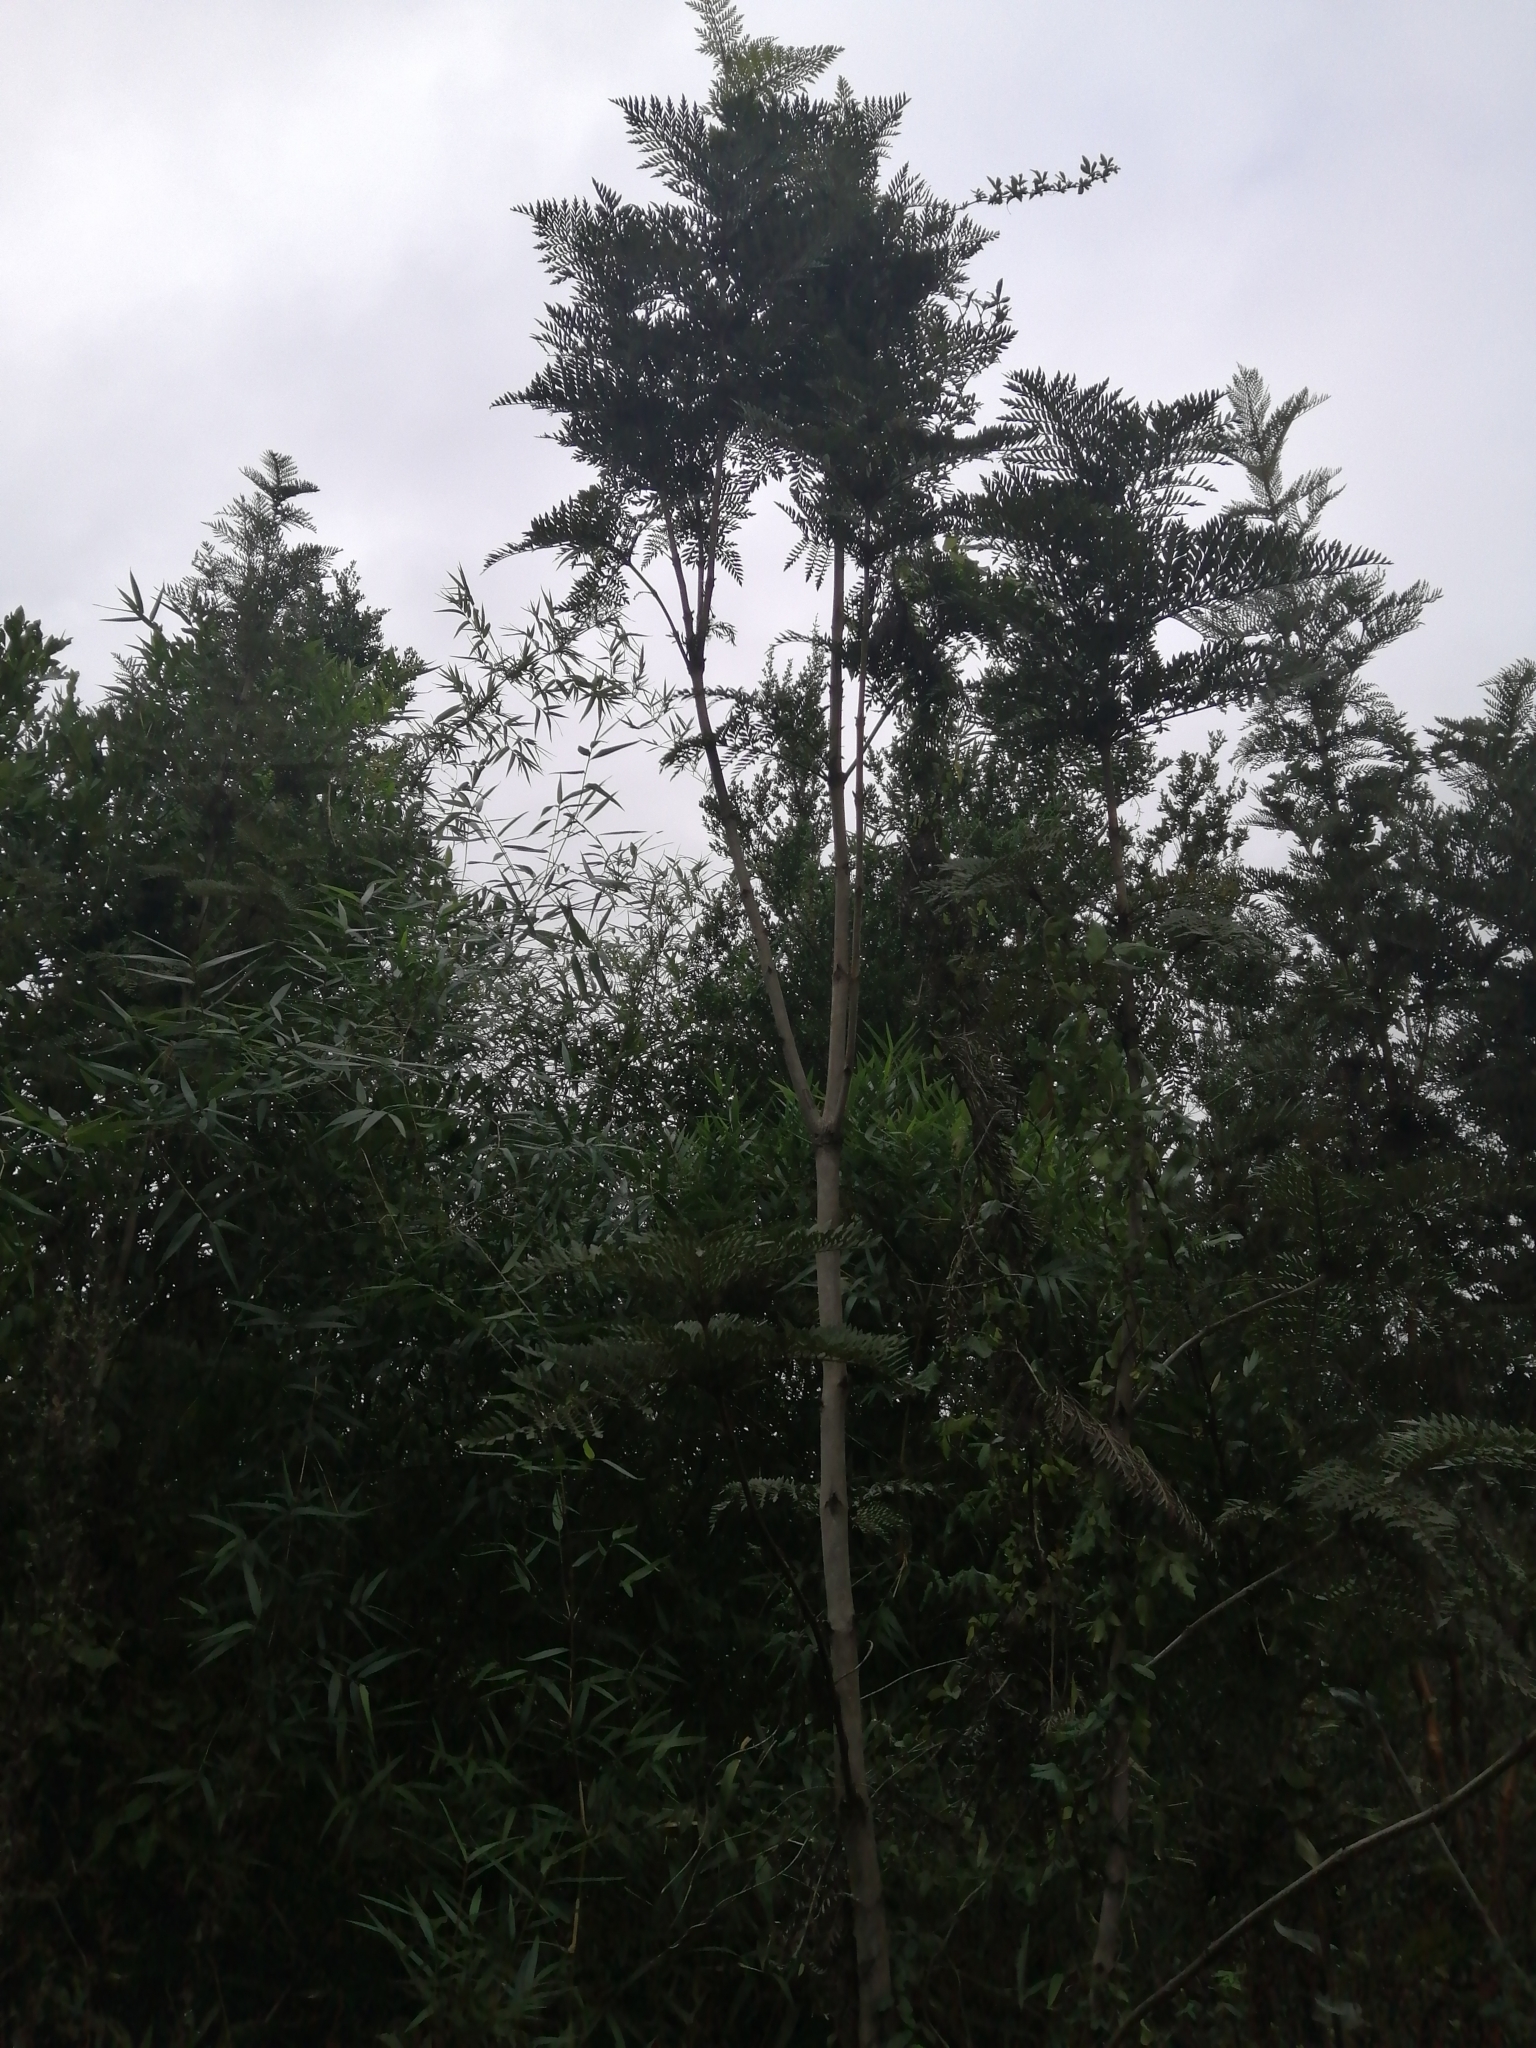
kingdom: Plantae
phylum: Tracheophyta
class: Magnoliopsida
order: Proteales
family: Proteaceae
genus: Lomatia
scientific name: Lomatia ferruginea
